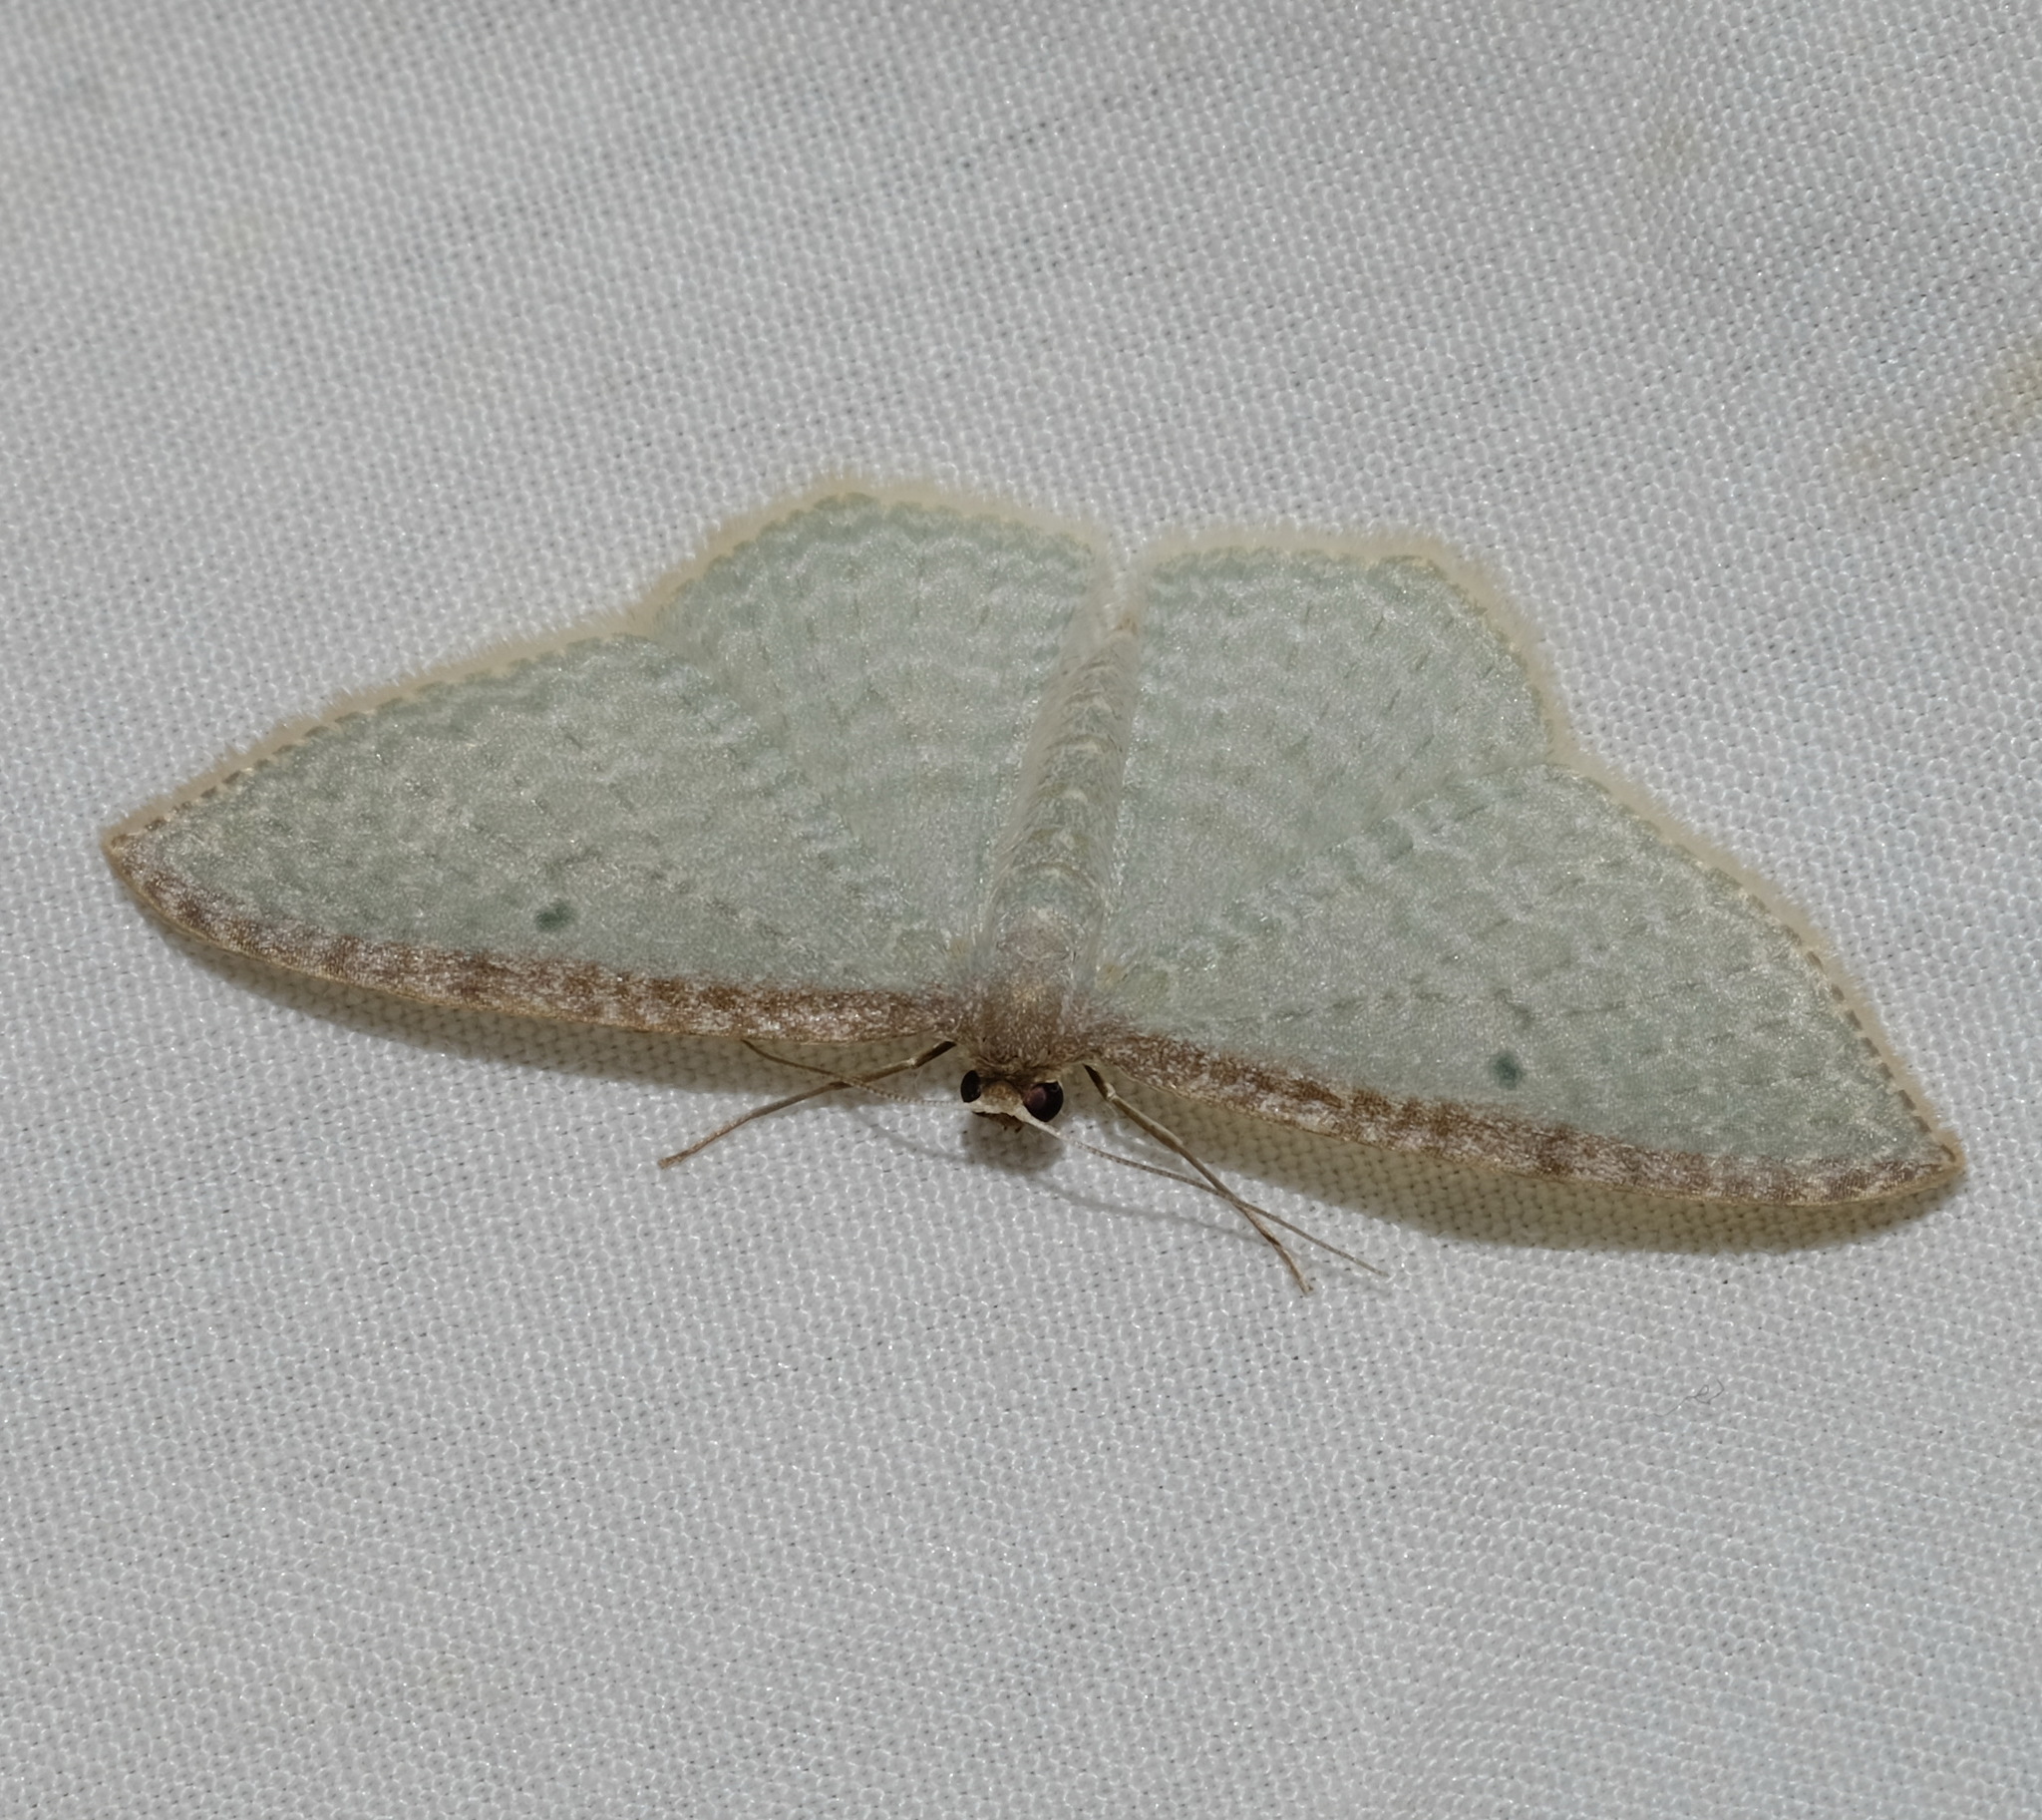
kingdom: Animalia
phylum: Arthropoda
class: Insecta
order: Lepidoptera
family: Geometridae
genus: Poecilasthena
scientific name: Poecilasthena pulchraria
